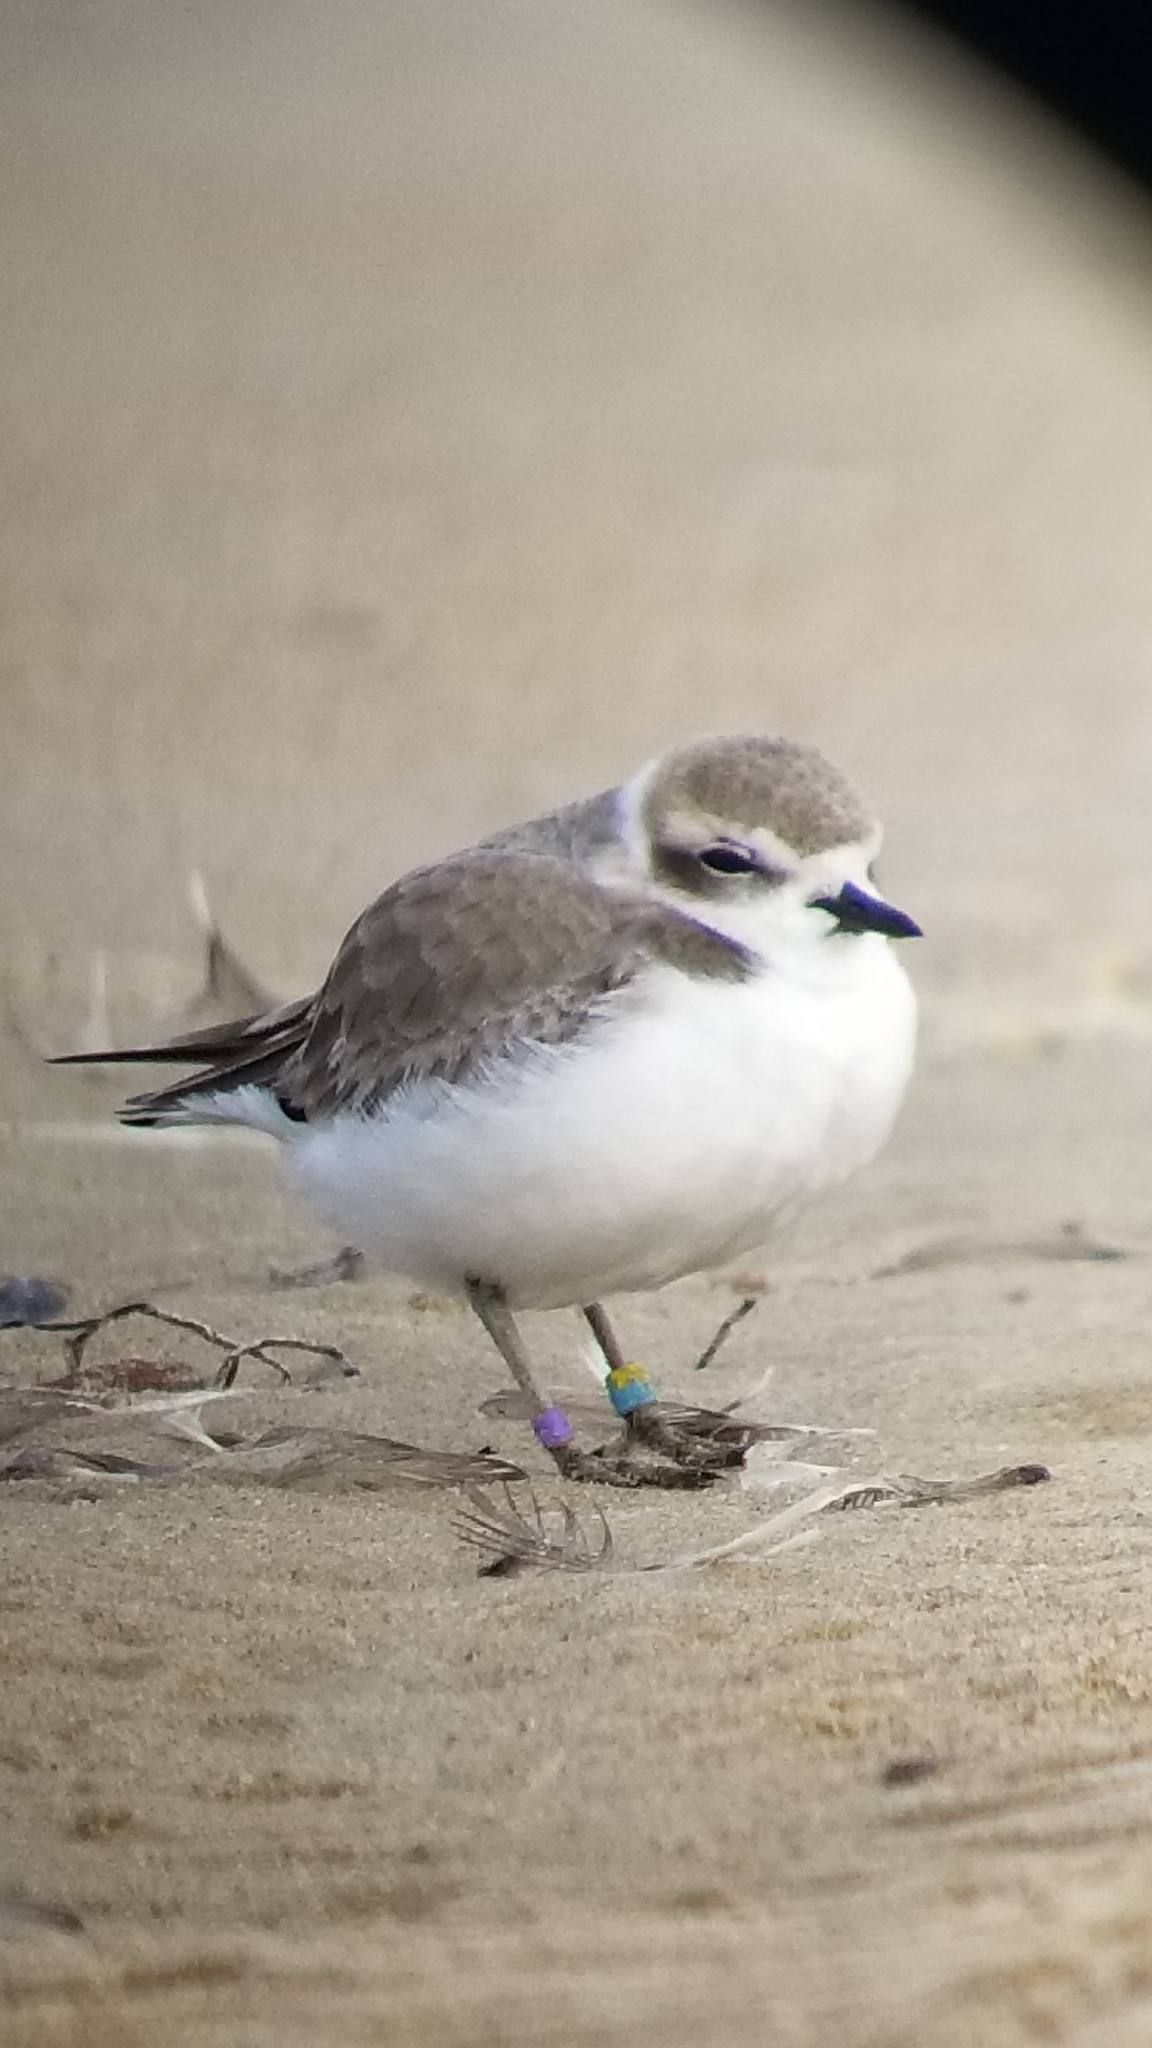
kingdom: Animalia
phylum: Chordata
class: Aves
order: Charadriiformes
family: Charadriidae
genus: Anarhynchus
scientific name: Anarhynchus
